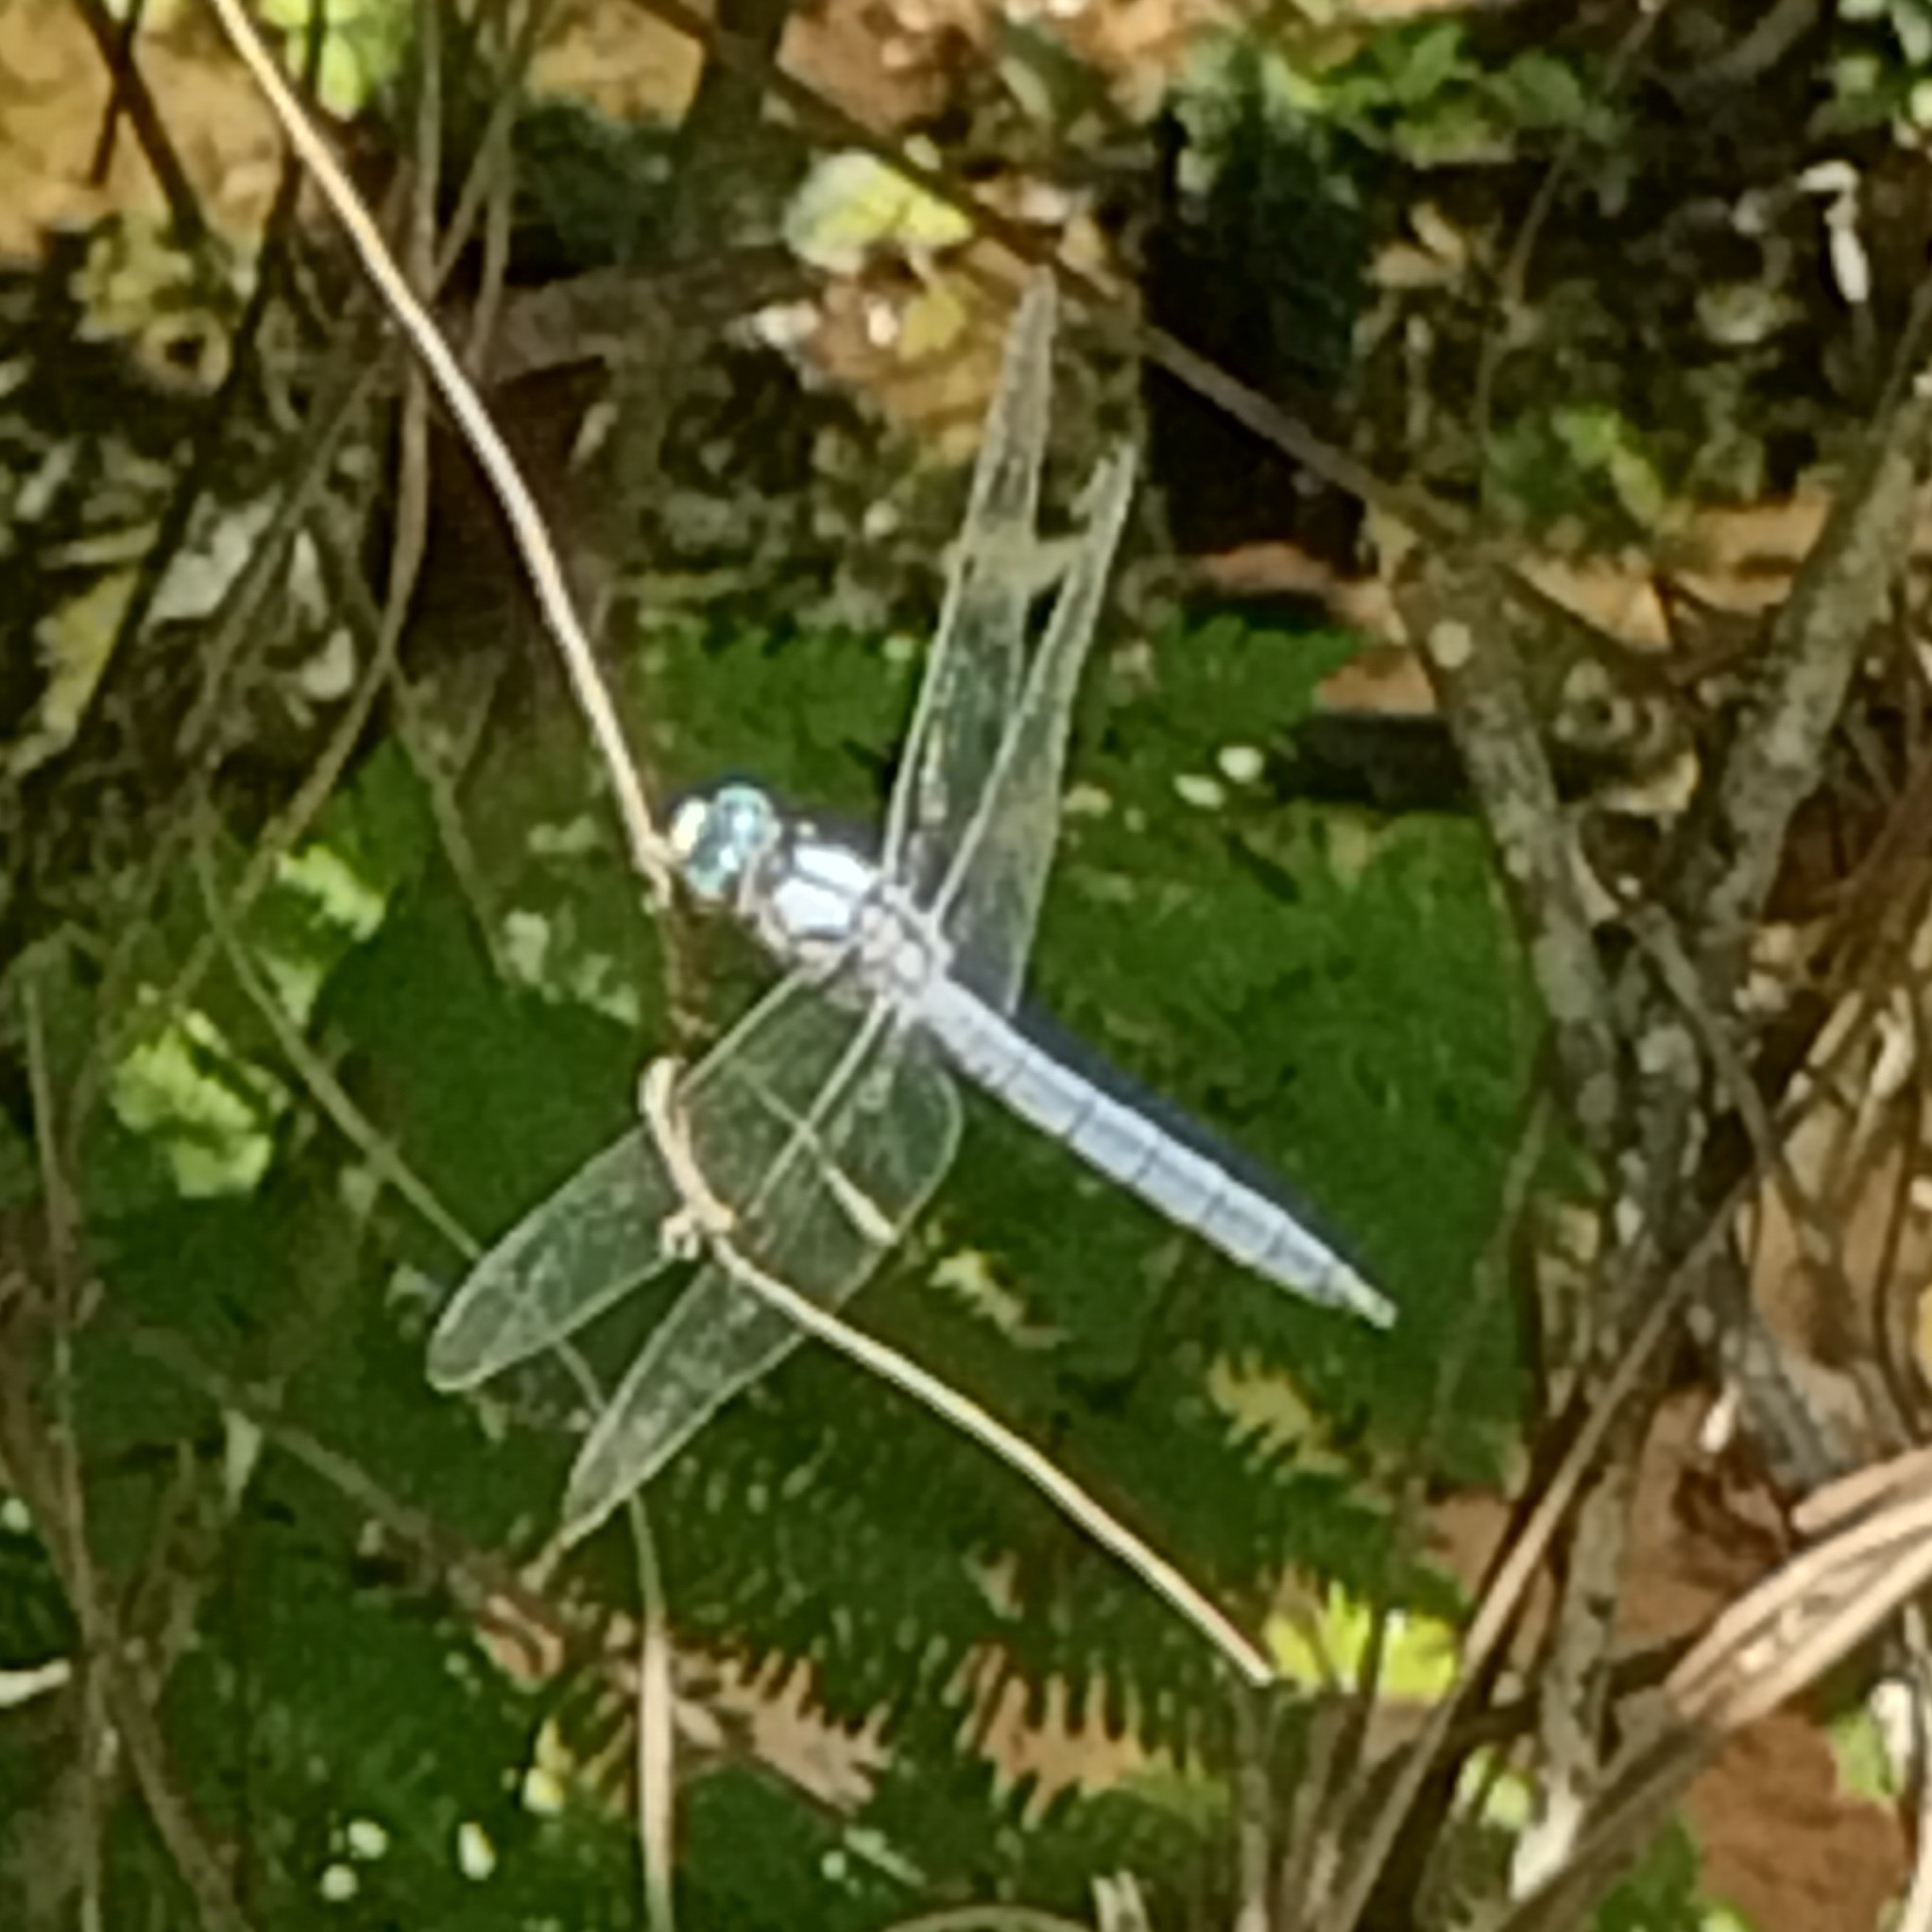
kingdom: Animalia
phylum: Arthropoda
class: Insecta
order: Odonata
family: Libellulidae
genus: Libellula
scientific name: Libellula vibrans
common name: Great blue skimmer
